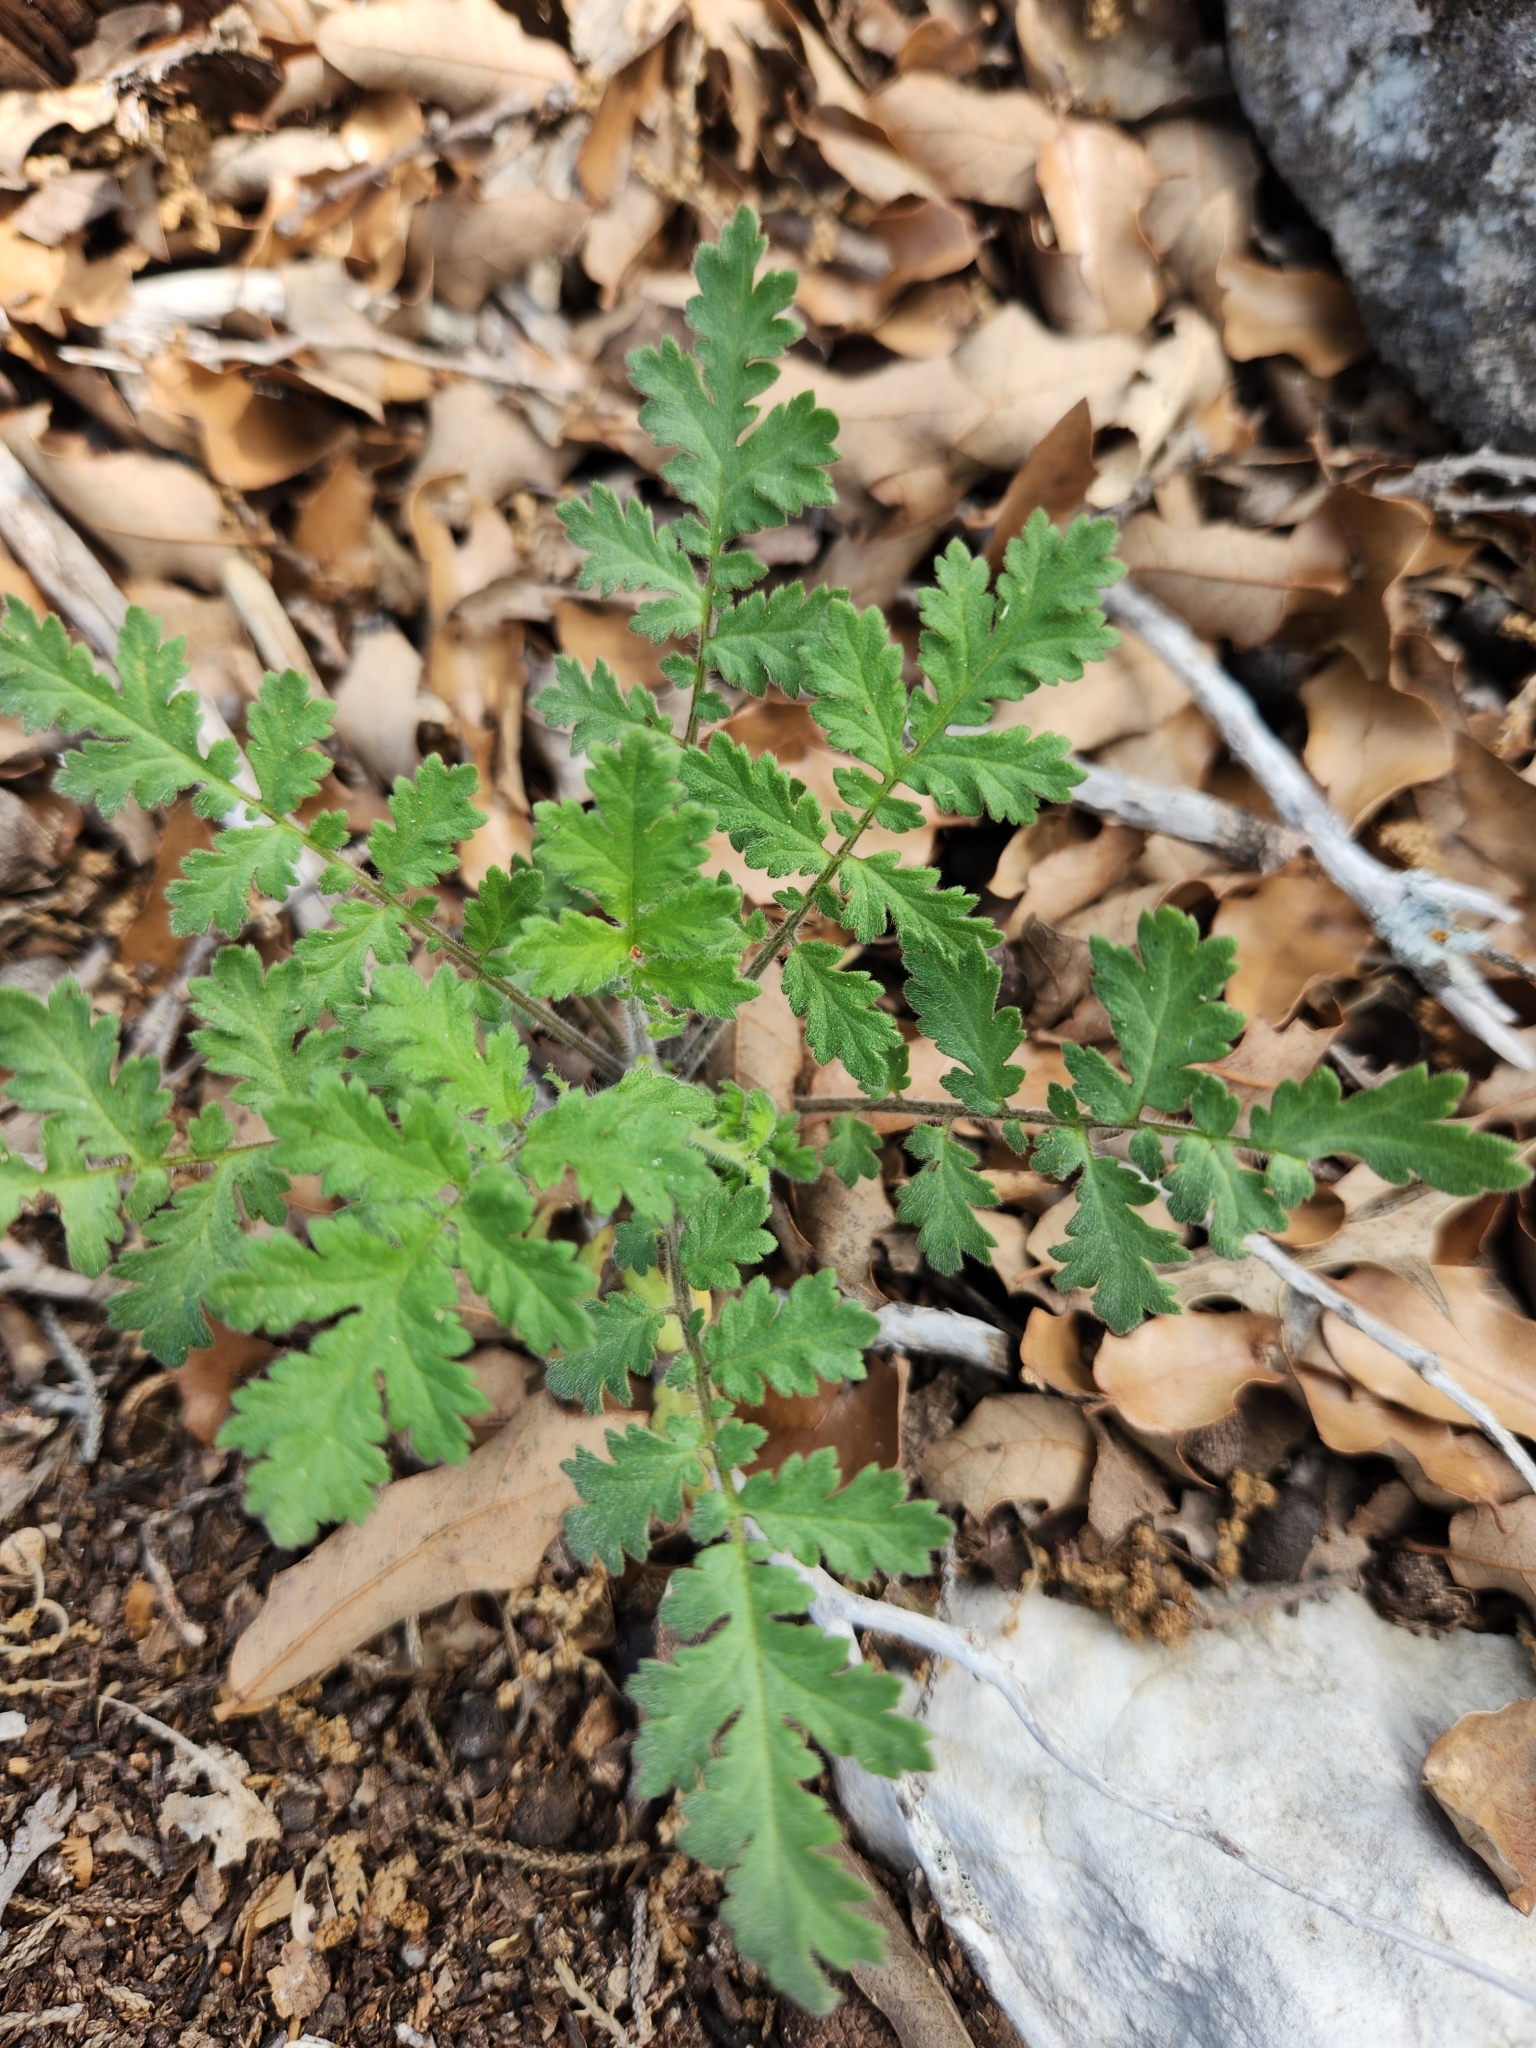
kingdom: Plantae
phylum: Tracheophyta
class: Magnoliopsida
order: Boraginales
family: Hydrophyllaceae
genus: Phacelia
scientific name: Phacelia congesta
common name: Blue curls
